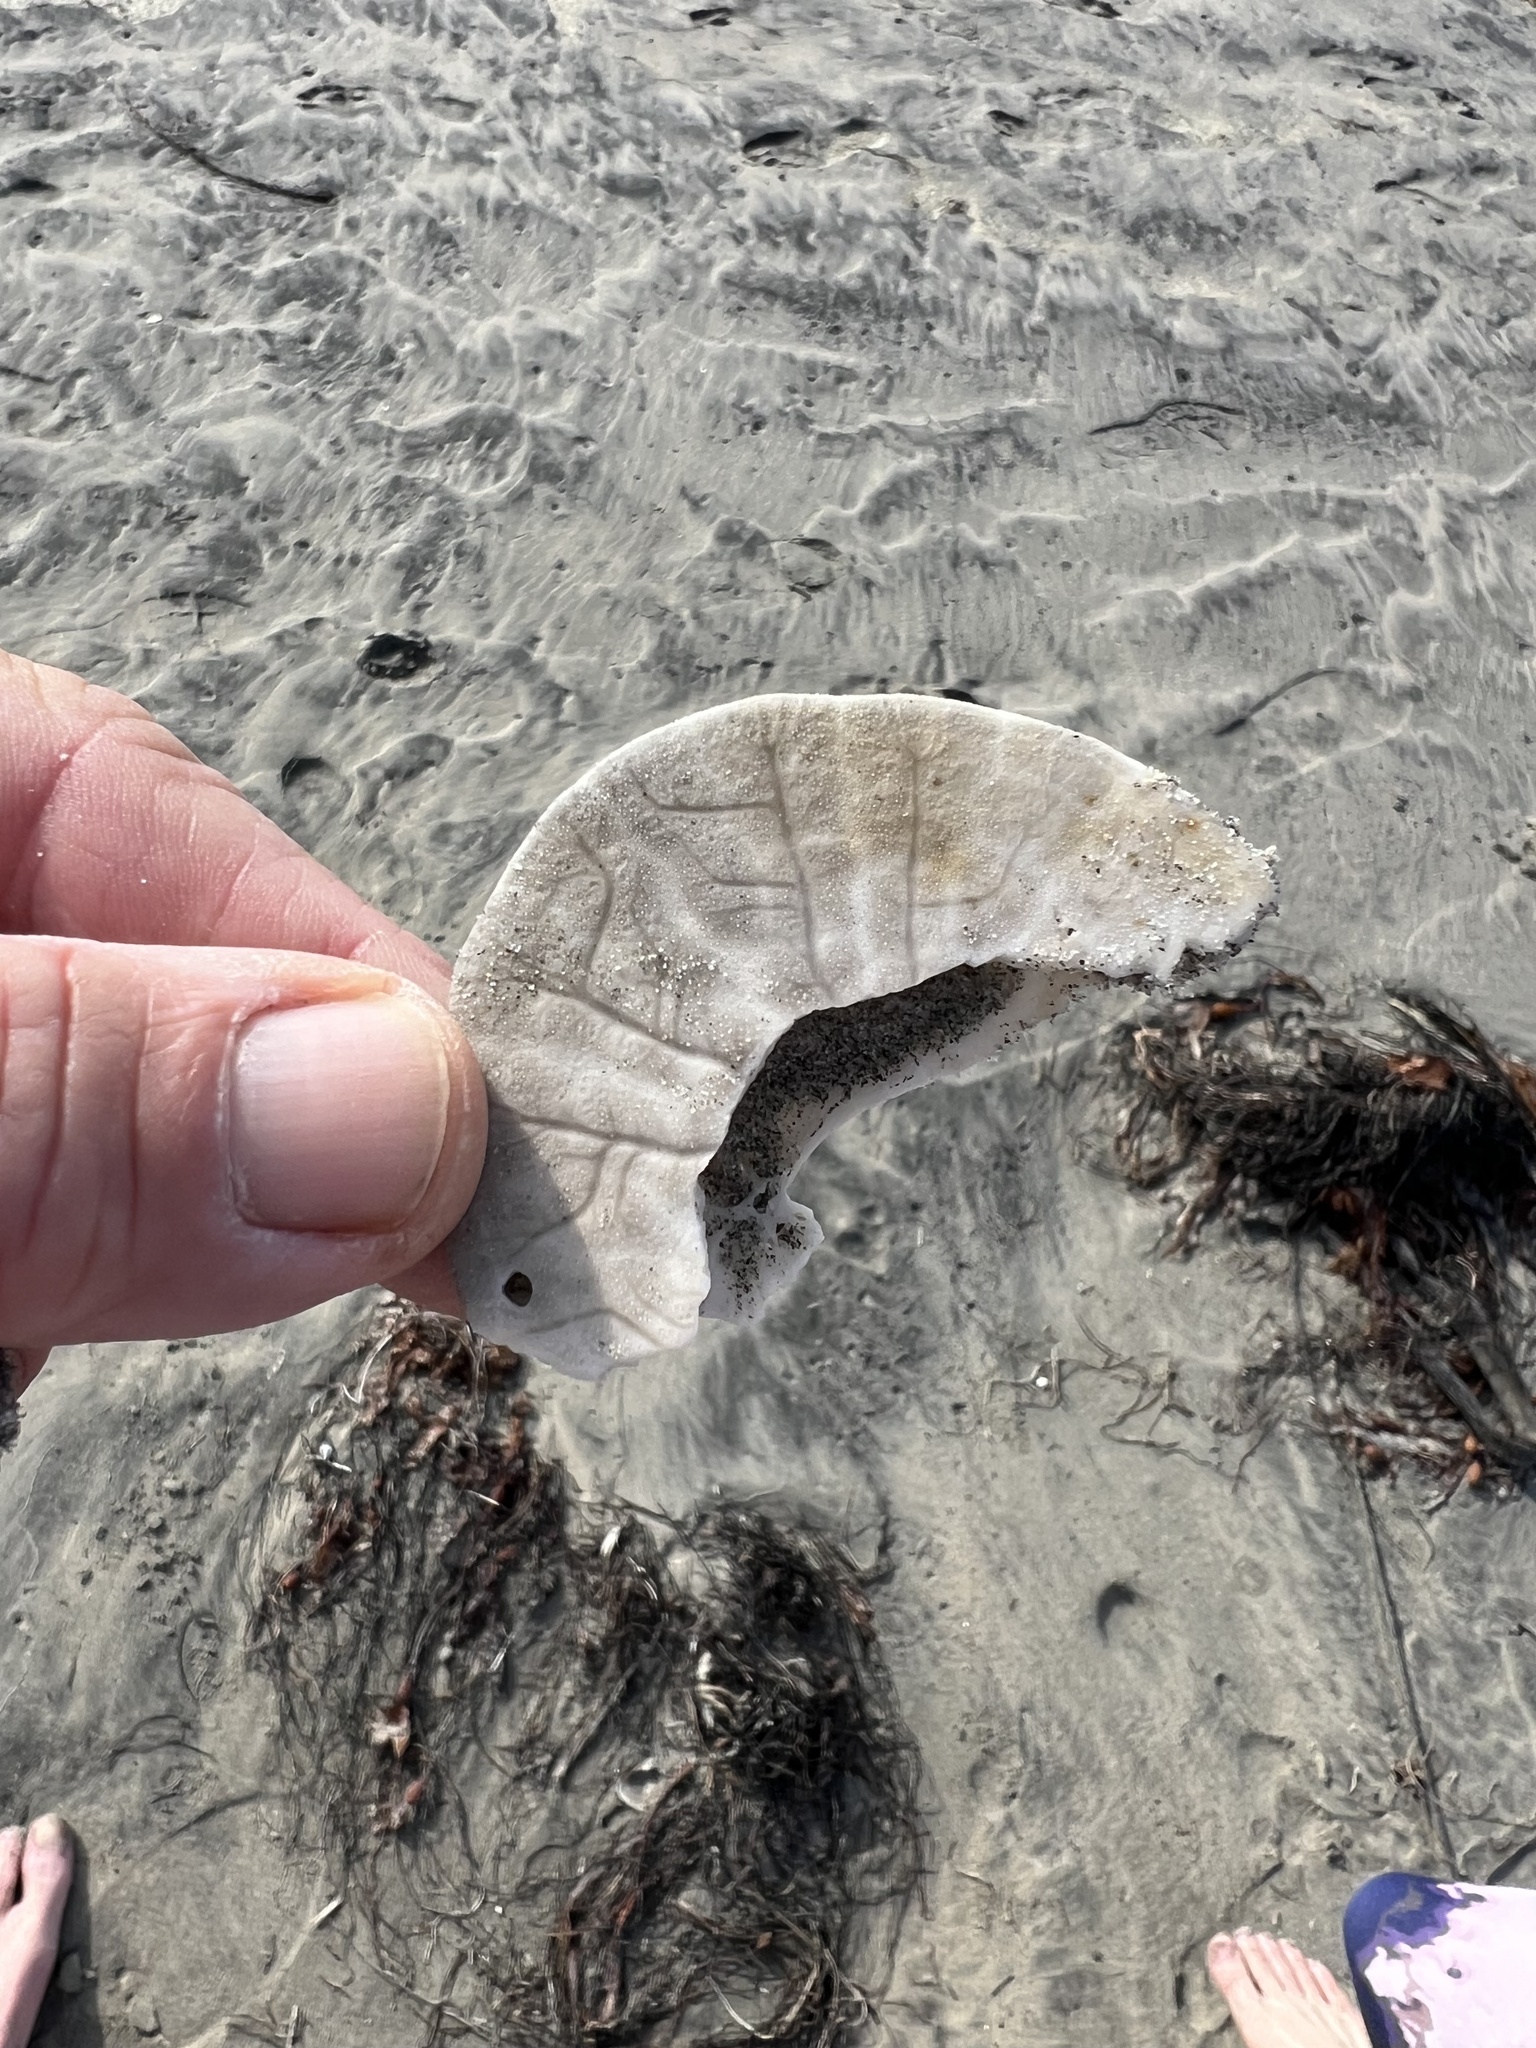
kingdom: Animalia
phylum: Echinodermata
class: Echinoidea
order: Echinolampadacea
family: Dendrasteridae
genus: Dendraster
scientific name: Dendraster excentricus
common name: Eccentric sand dollar sea urchin
